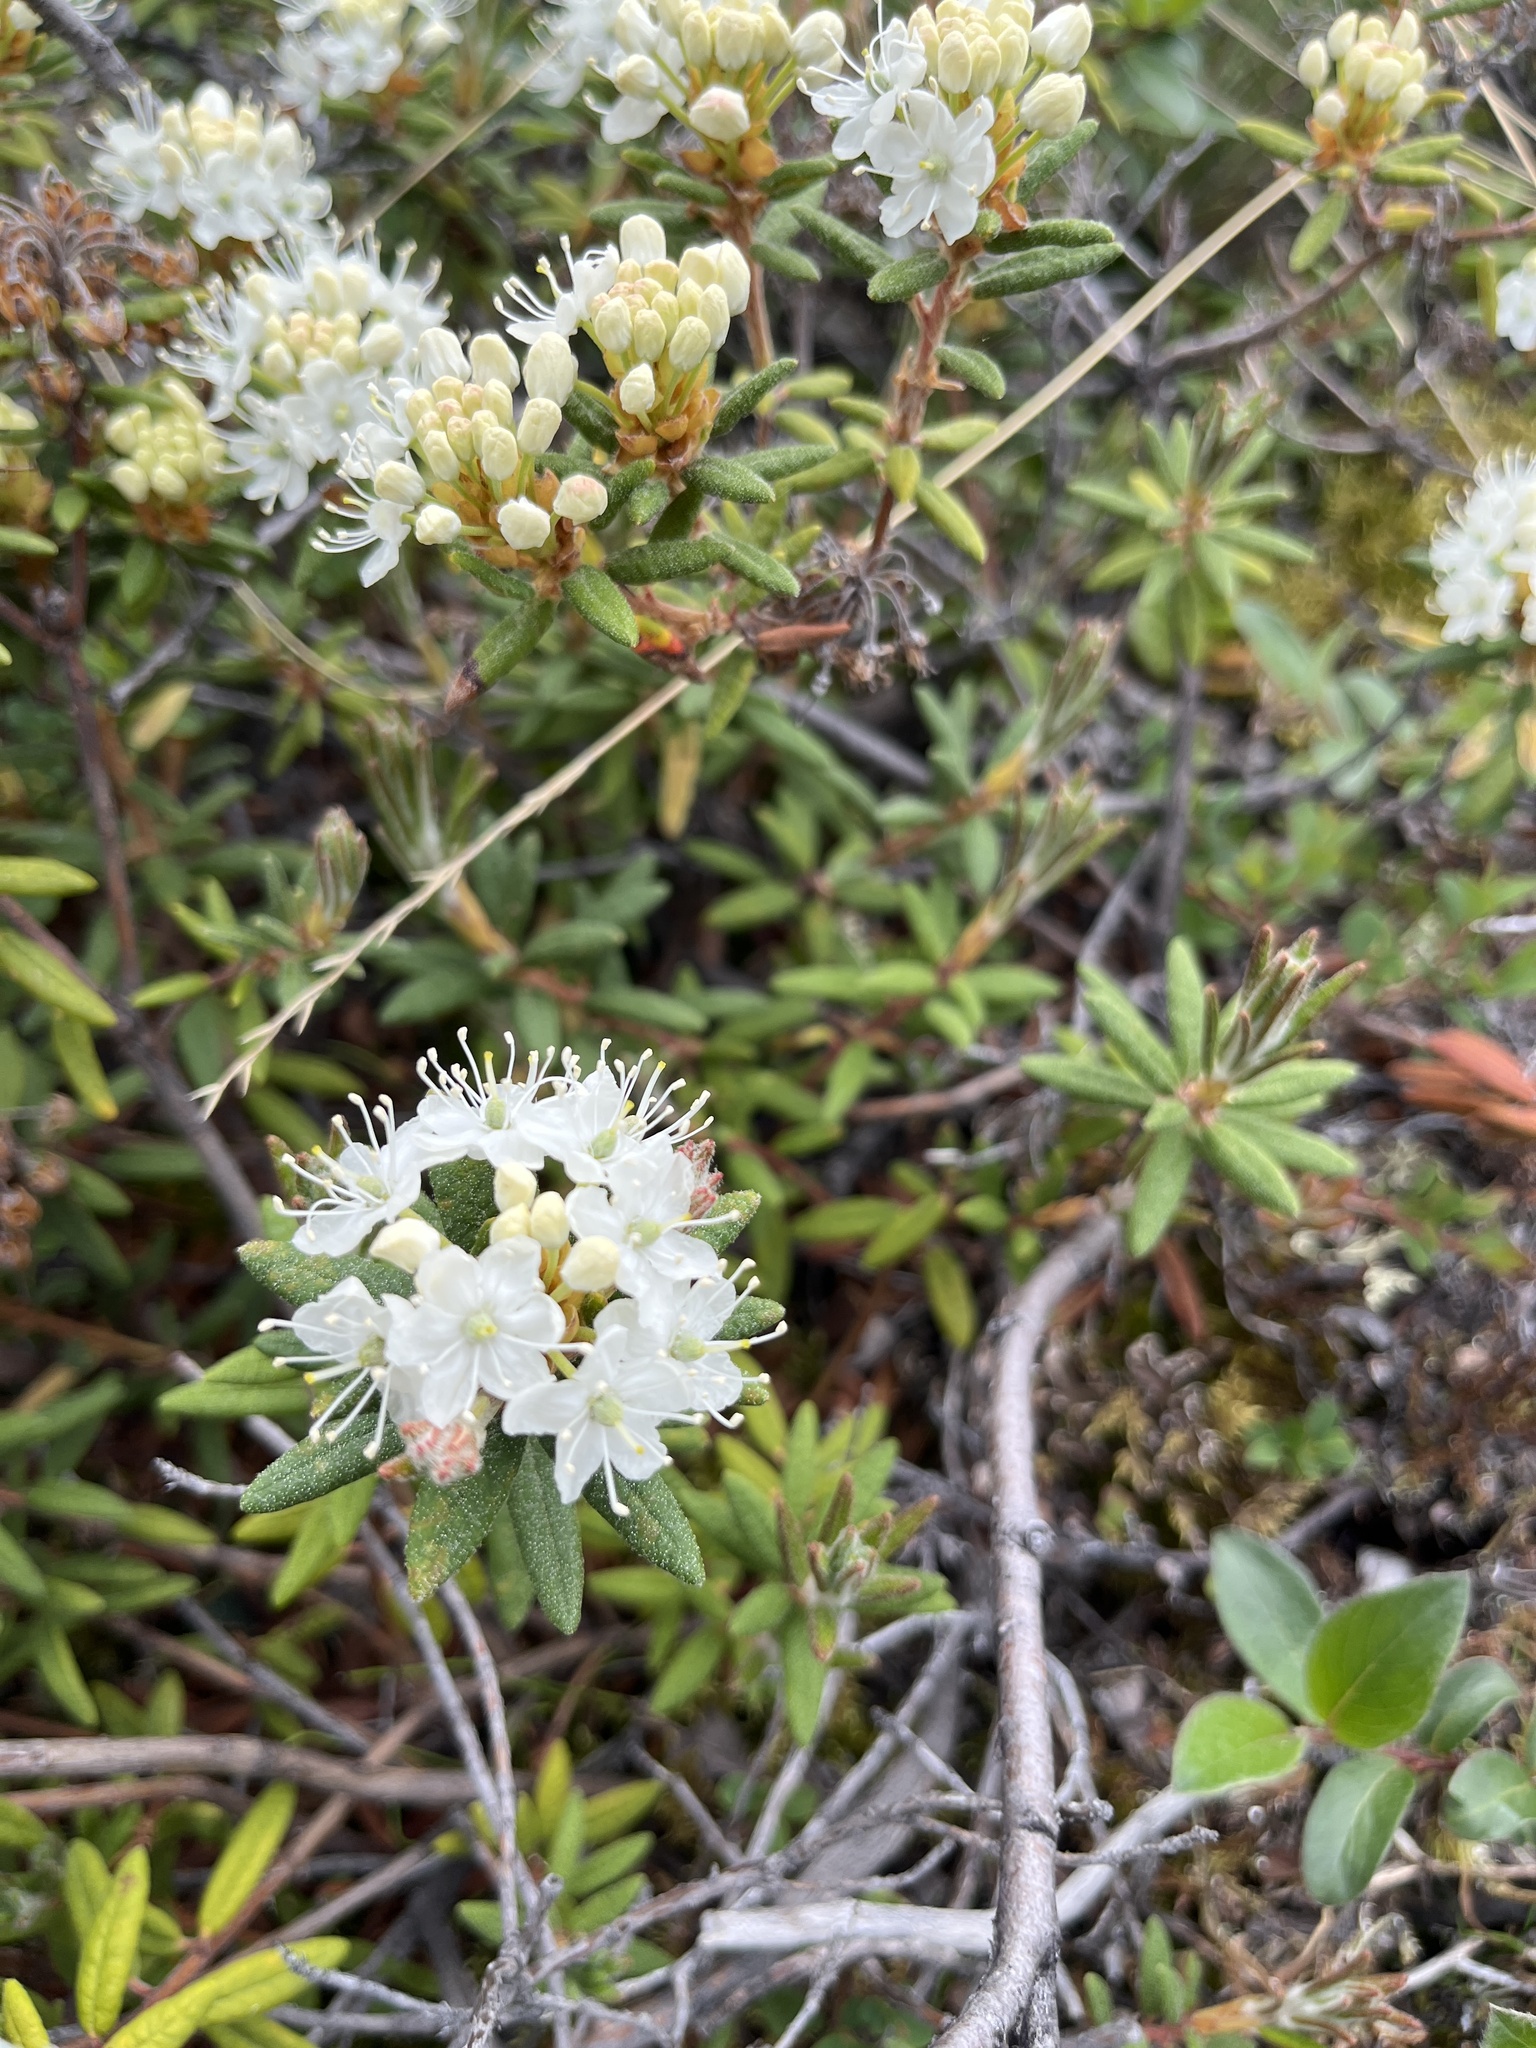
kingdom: Plantae
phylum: Tracheophyta
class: Magnoliopsida
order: Ericales
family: Ericaceae
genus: Rhododendron
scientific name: Rhododendron groenlandicum
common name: Bog labrador tea
